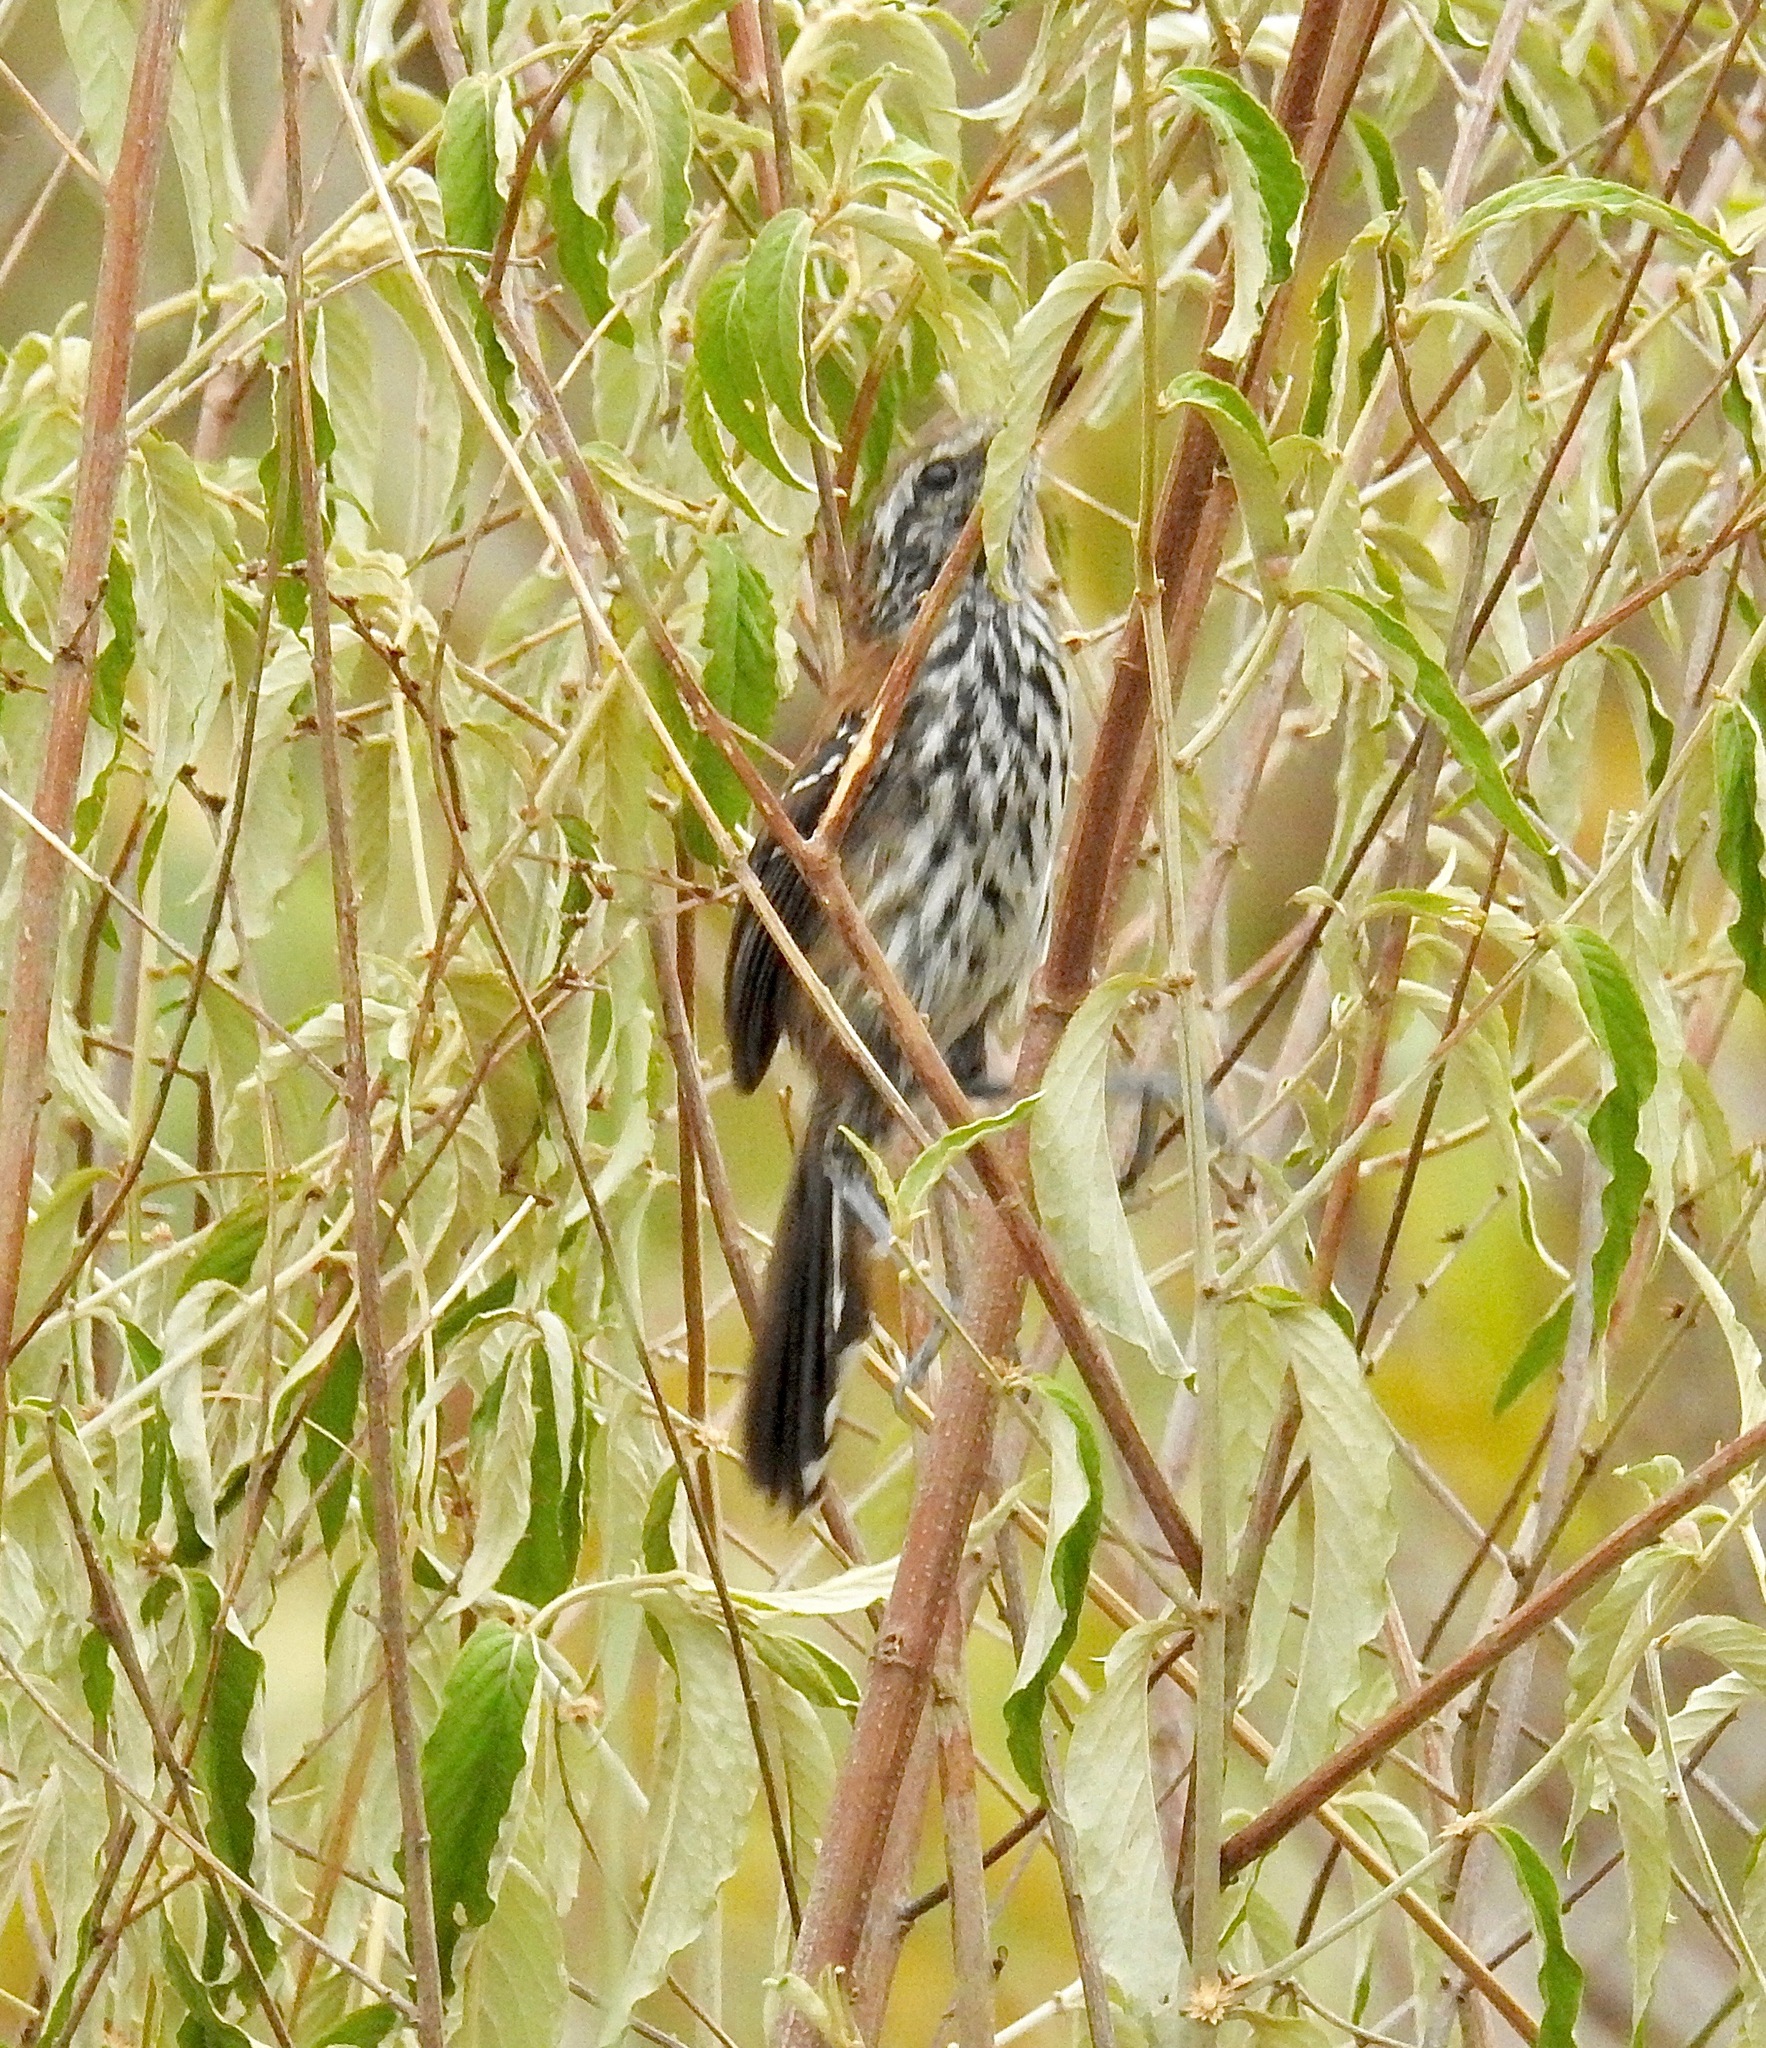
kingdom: Animalia
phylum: Chordata
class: Aves
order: Passeriformes
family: Thamnophilidae
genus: Formicivora
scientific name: Formicivora grantsaui
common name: Sincora antwren
